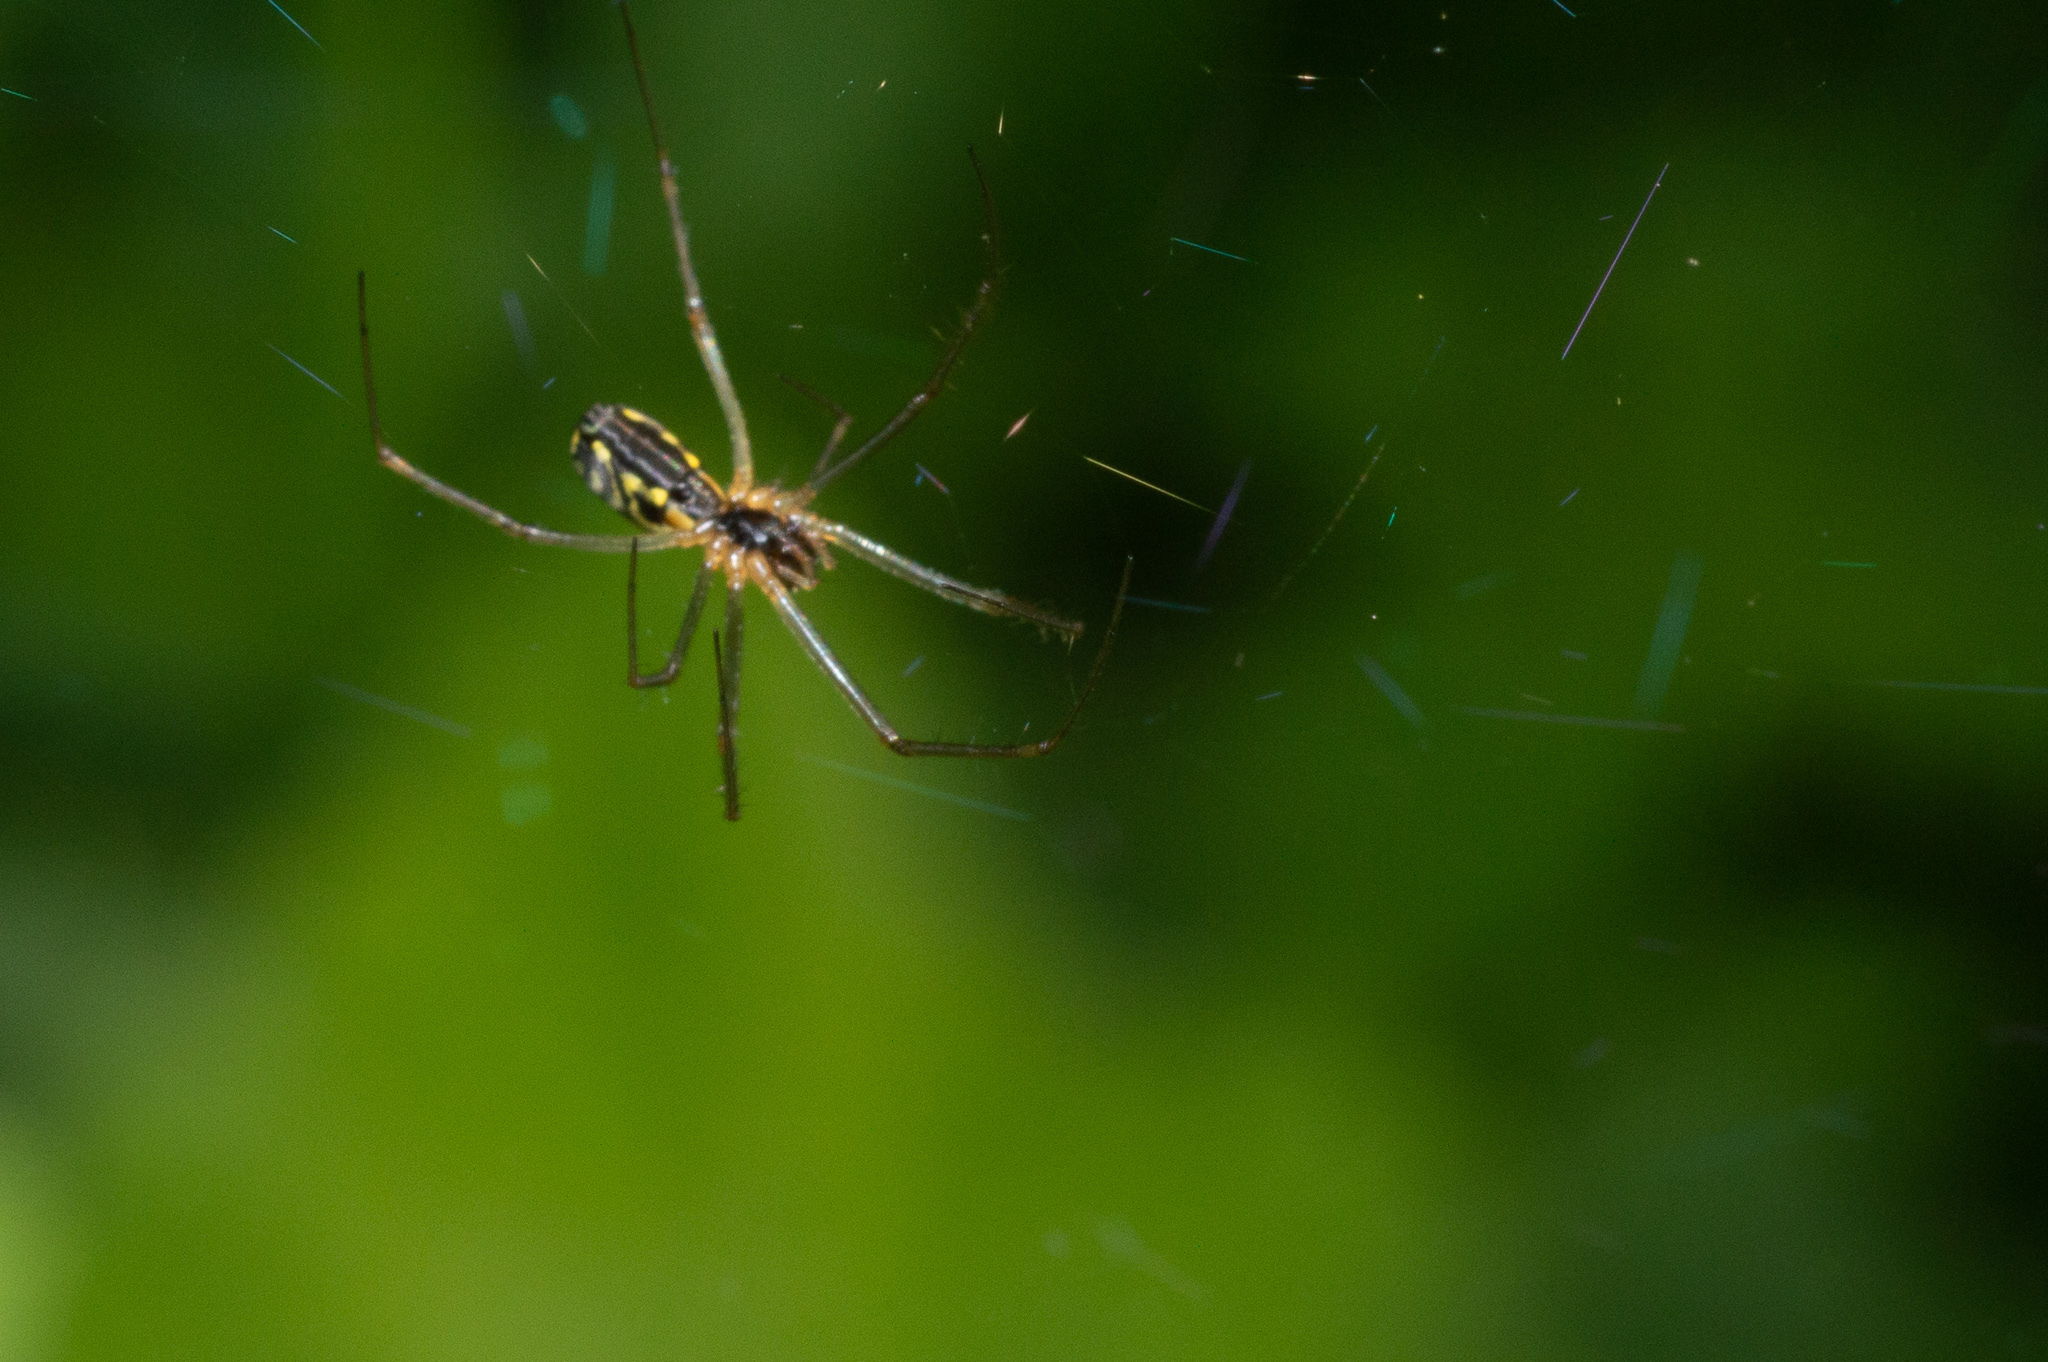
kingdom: Animalia
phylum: Arthropoda
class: Arachnida
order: Araneae
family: Linyphiidae
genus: Neriene
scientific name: Neriene radiata
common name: Filmy dome spider
